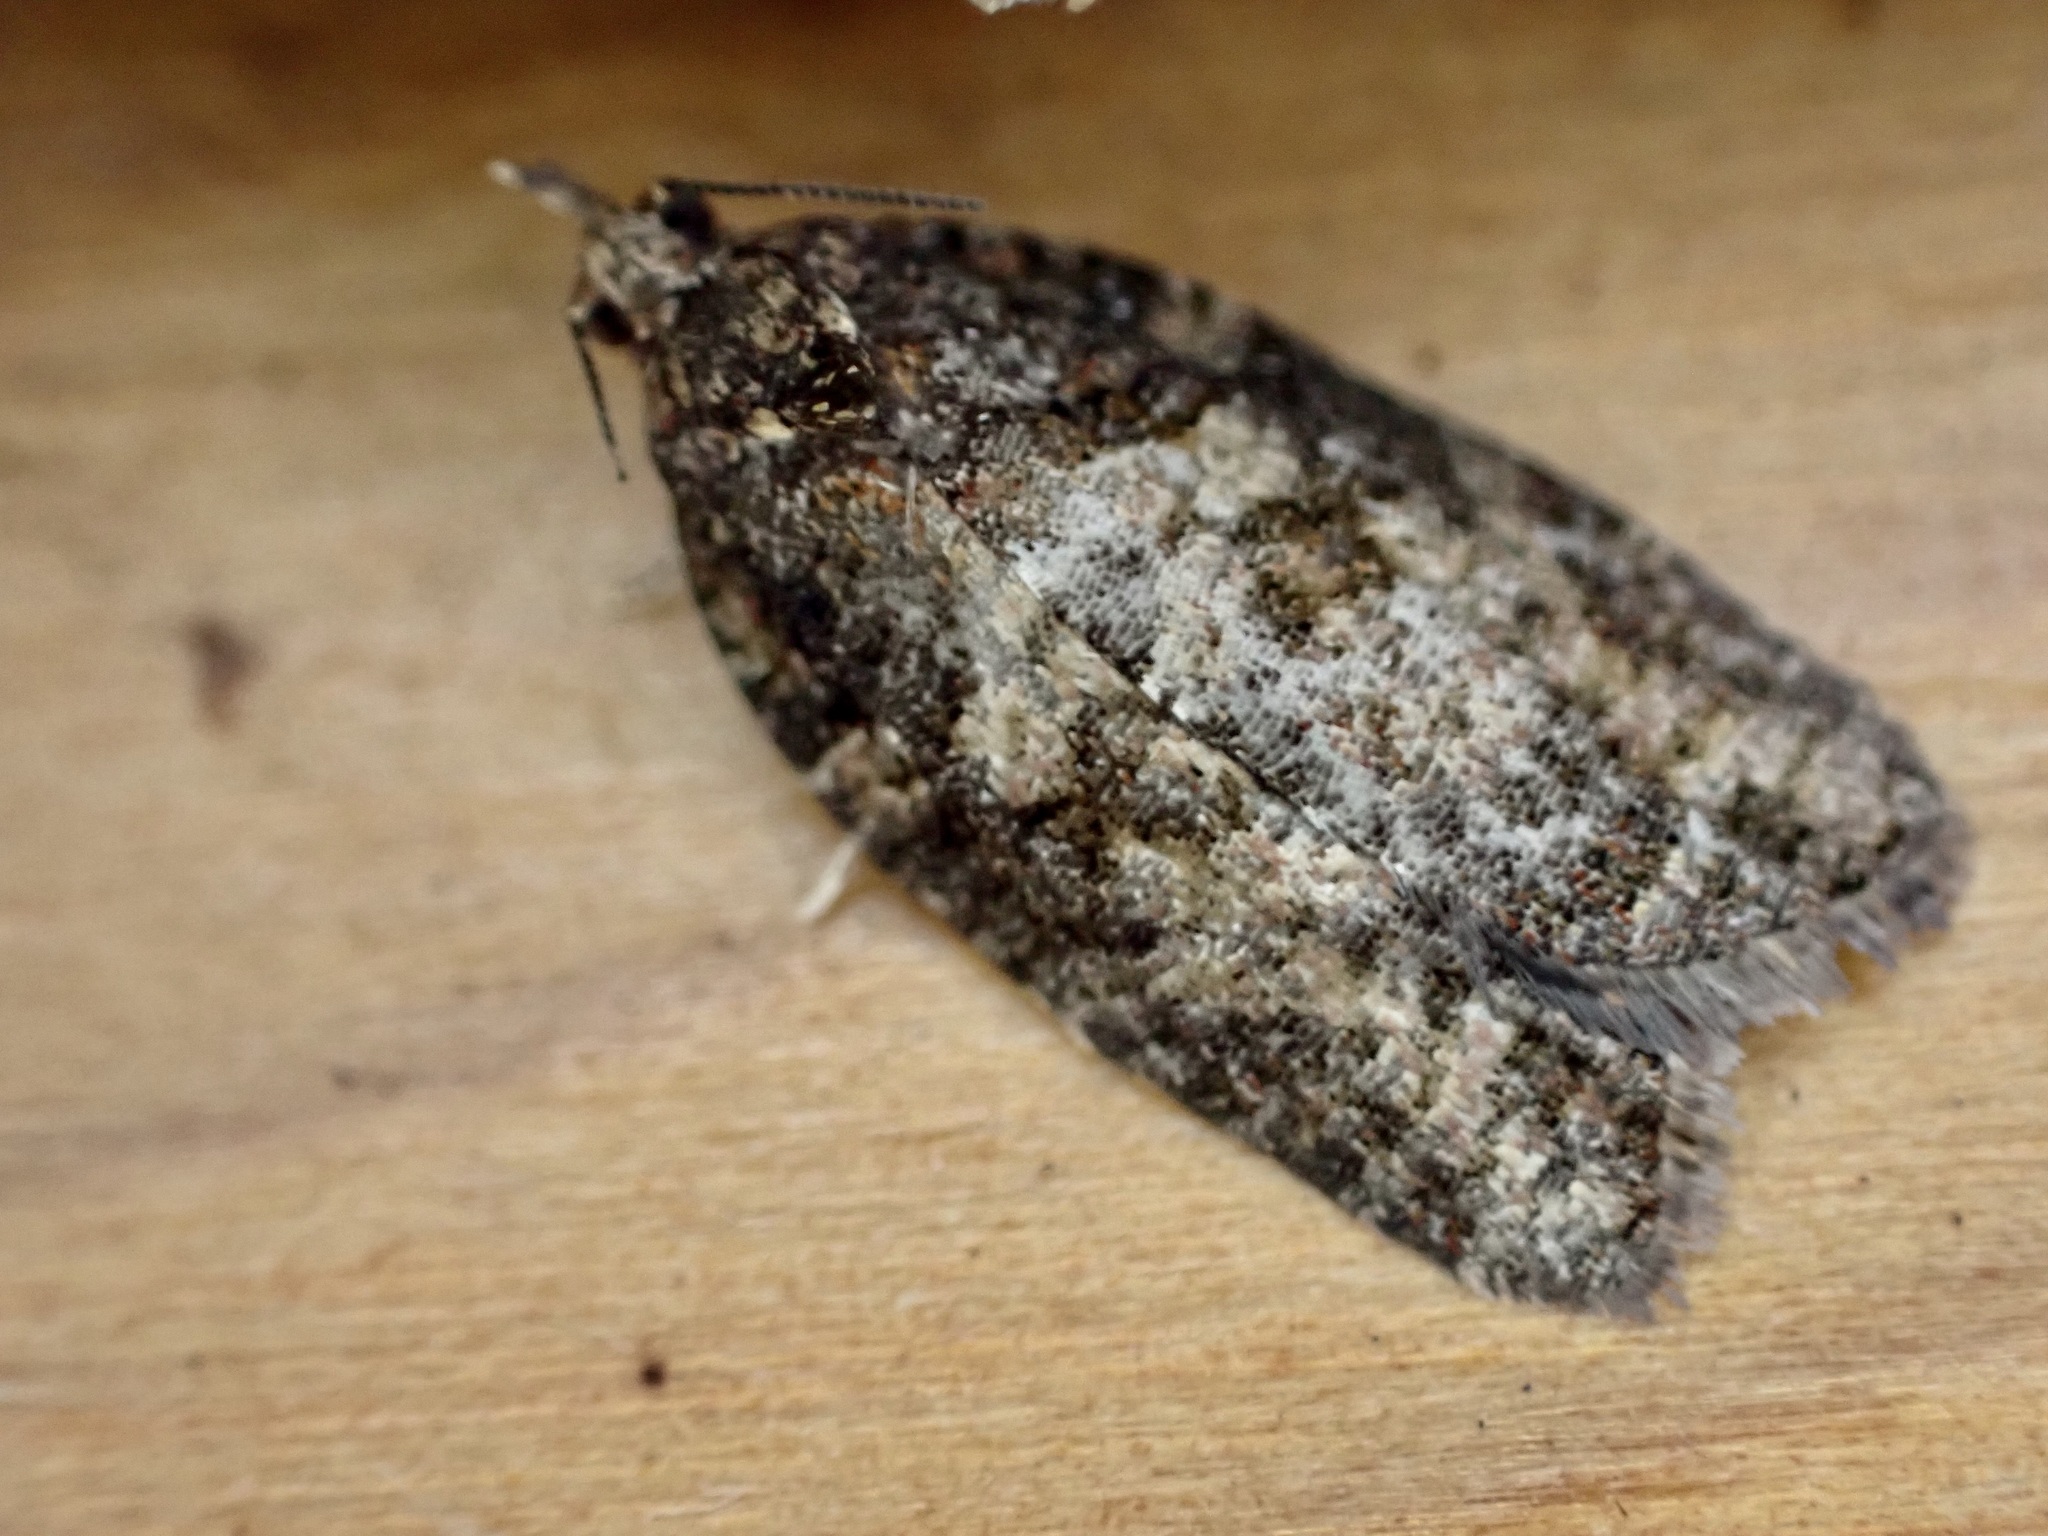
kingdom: Animalia
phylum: Arthropoda
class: Insecta
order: Lepidoptera
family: Tortricidae
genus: Capua
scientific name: Capua intractana
